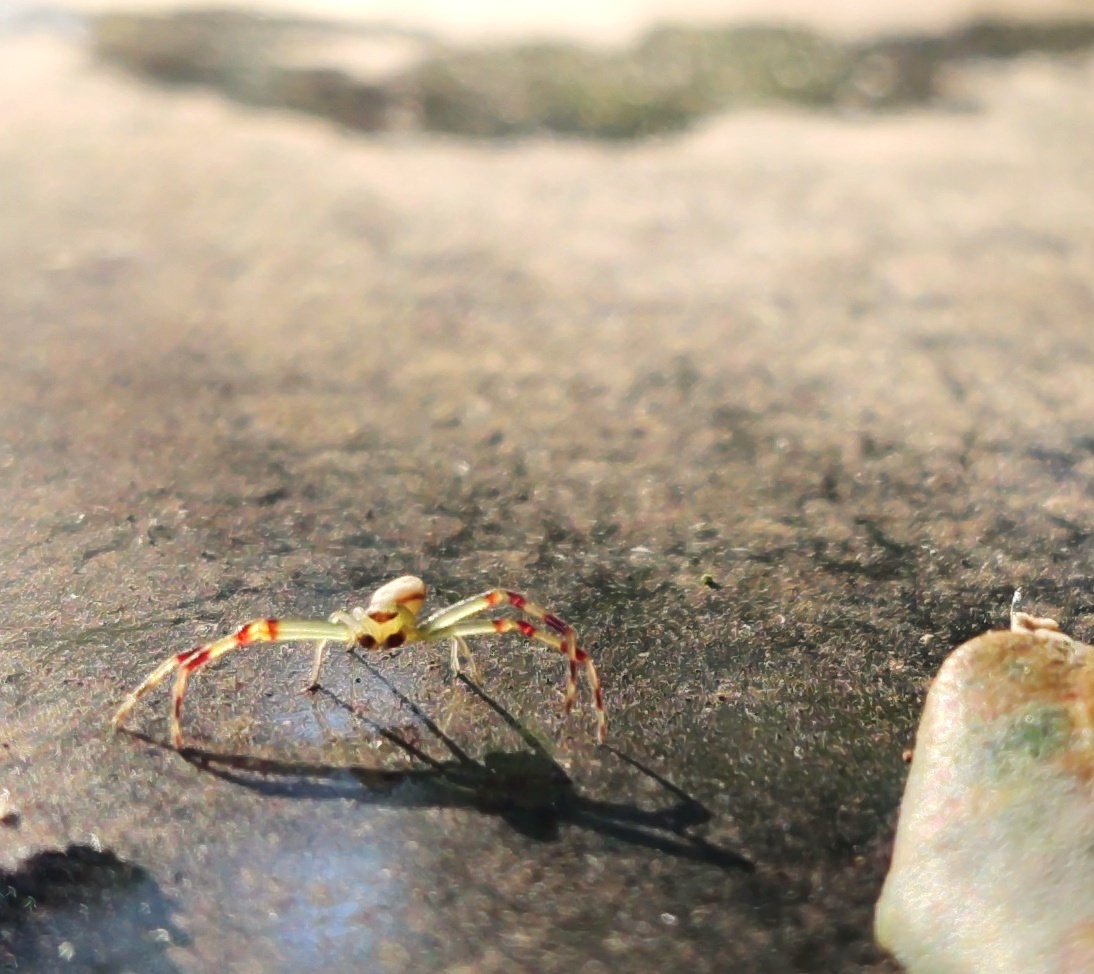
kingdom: Animalia
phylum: Arthropoda
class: Arachnida
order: Araneae
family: Thomisidae
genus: Misumena
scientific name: Misumena vatia
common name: Goldenrod crab spider
